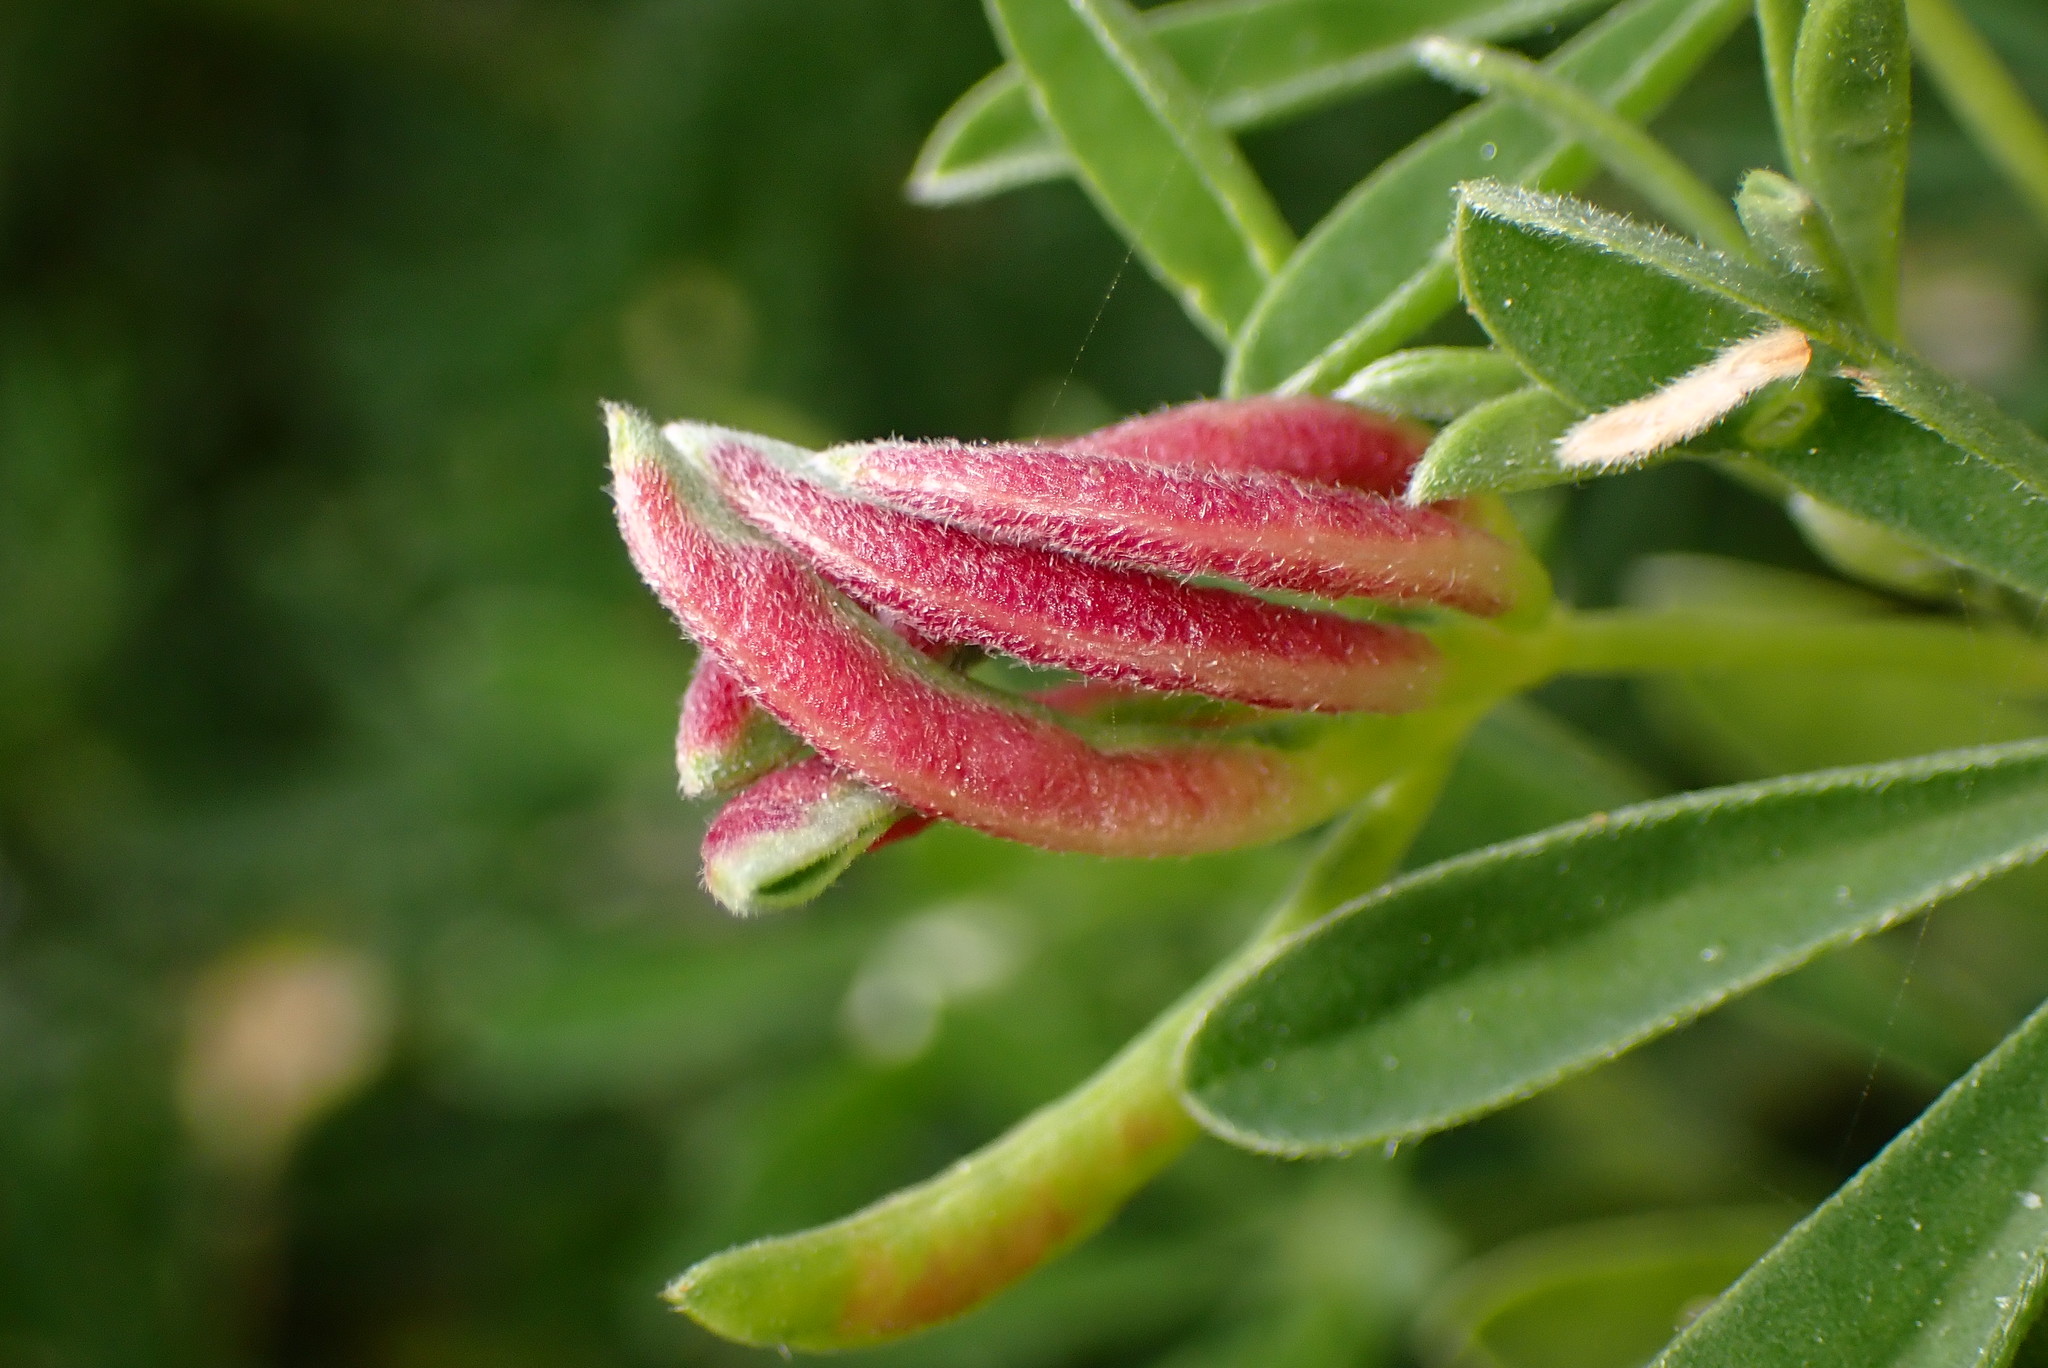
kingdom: Animalia
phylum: Arthropoda
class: Insecta
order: Diptera
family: Cecidomyiidae
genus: Dasineura
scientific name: Dasineura lupinorum
